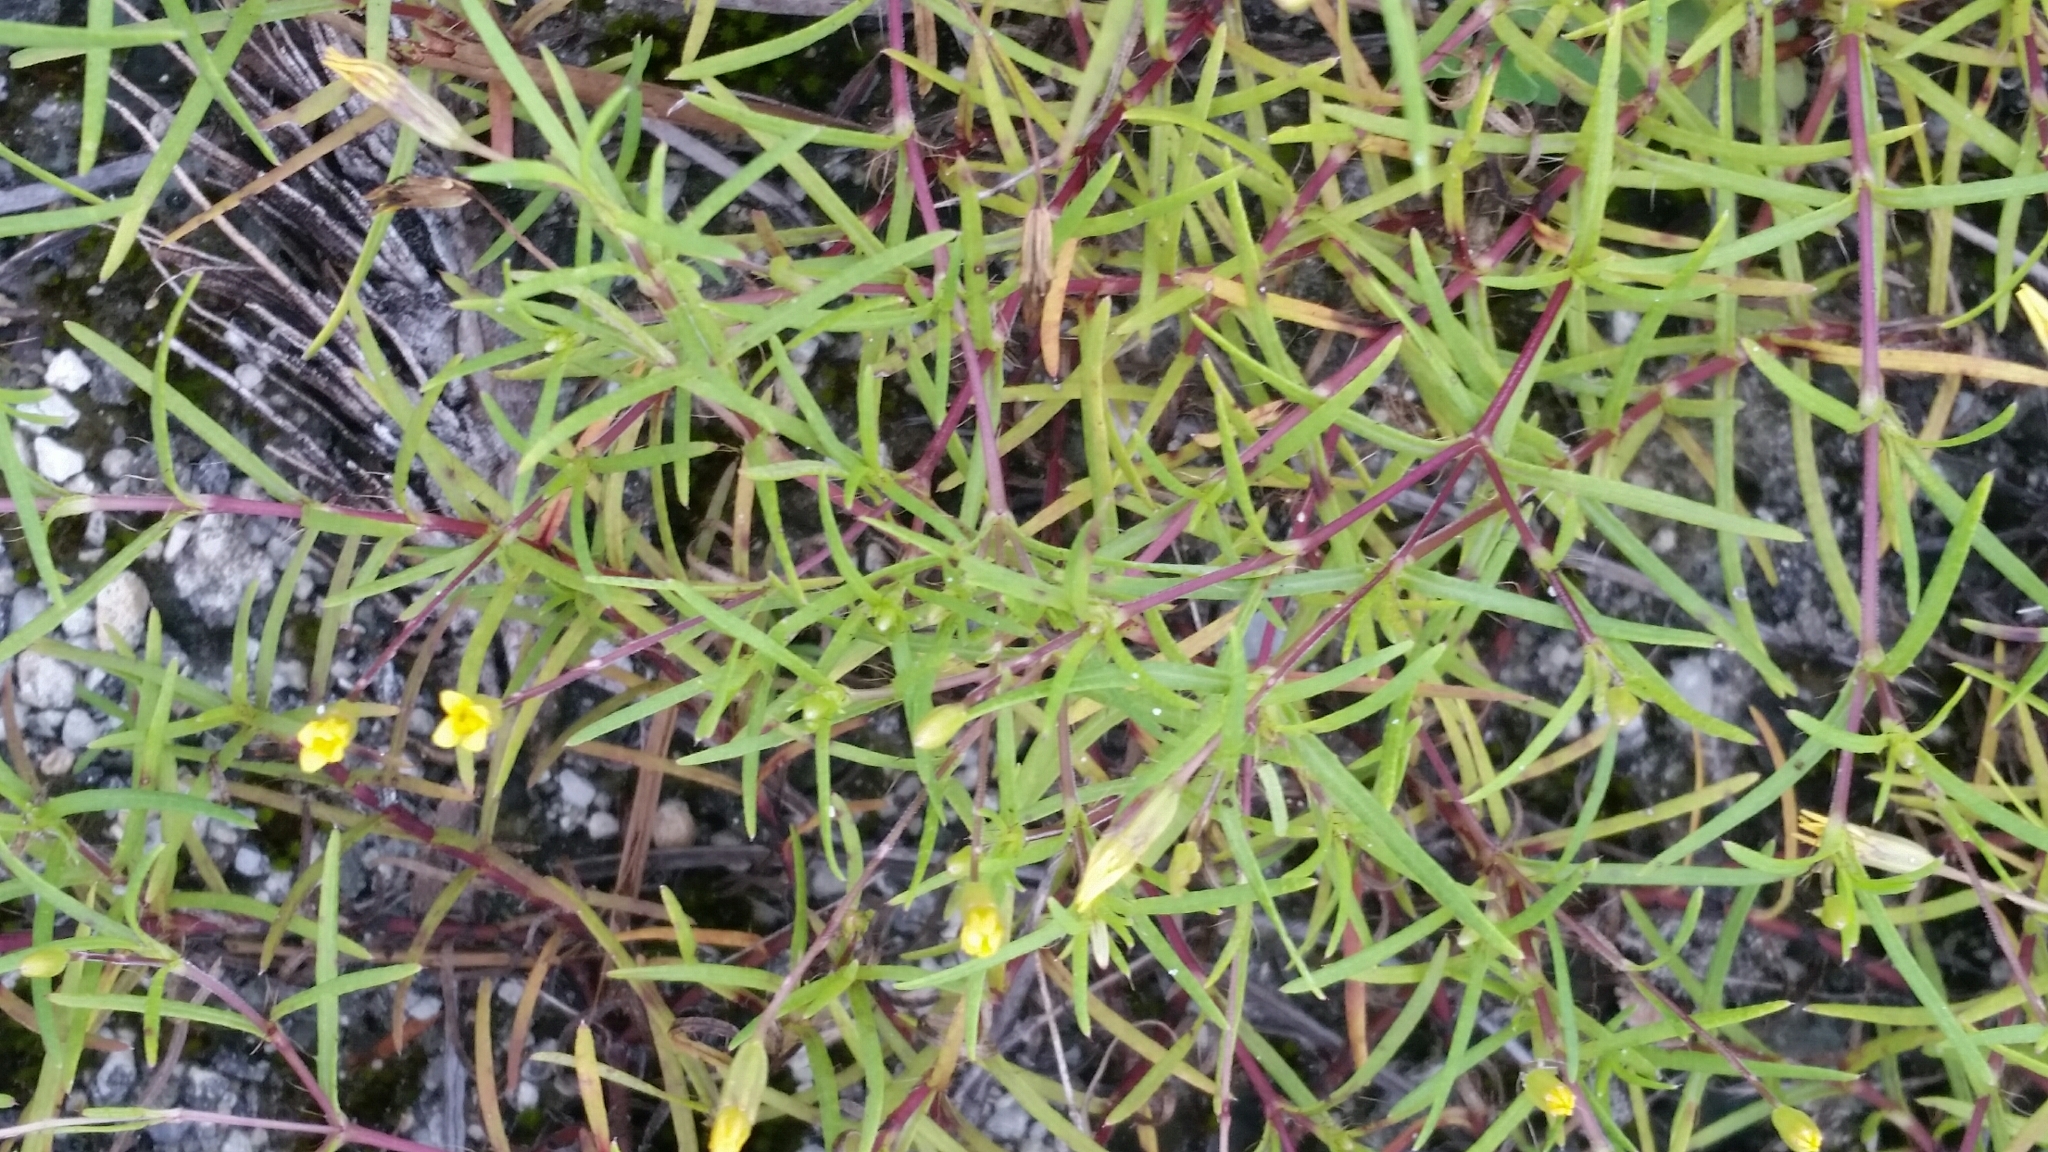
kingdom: Plantae
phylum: Tracheophyta
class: Magnoliopsida
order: Asterales
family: Asteraceae
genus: Pectis
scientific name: Pectis glaucescens
